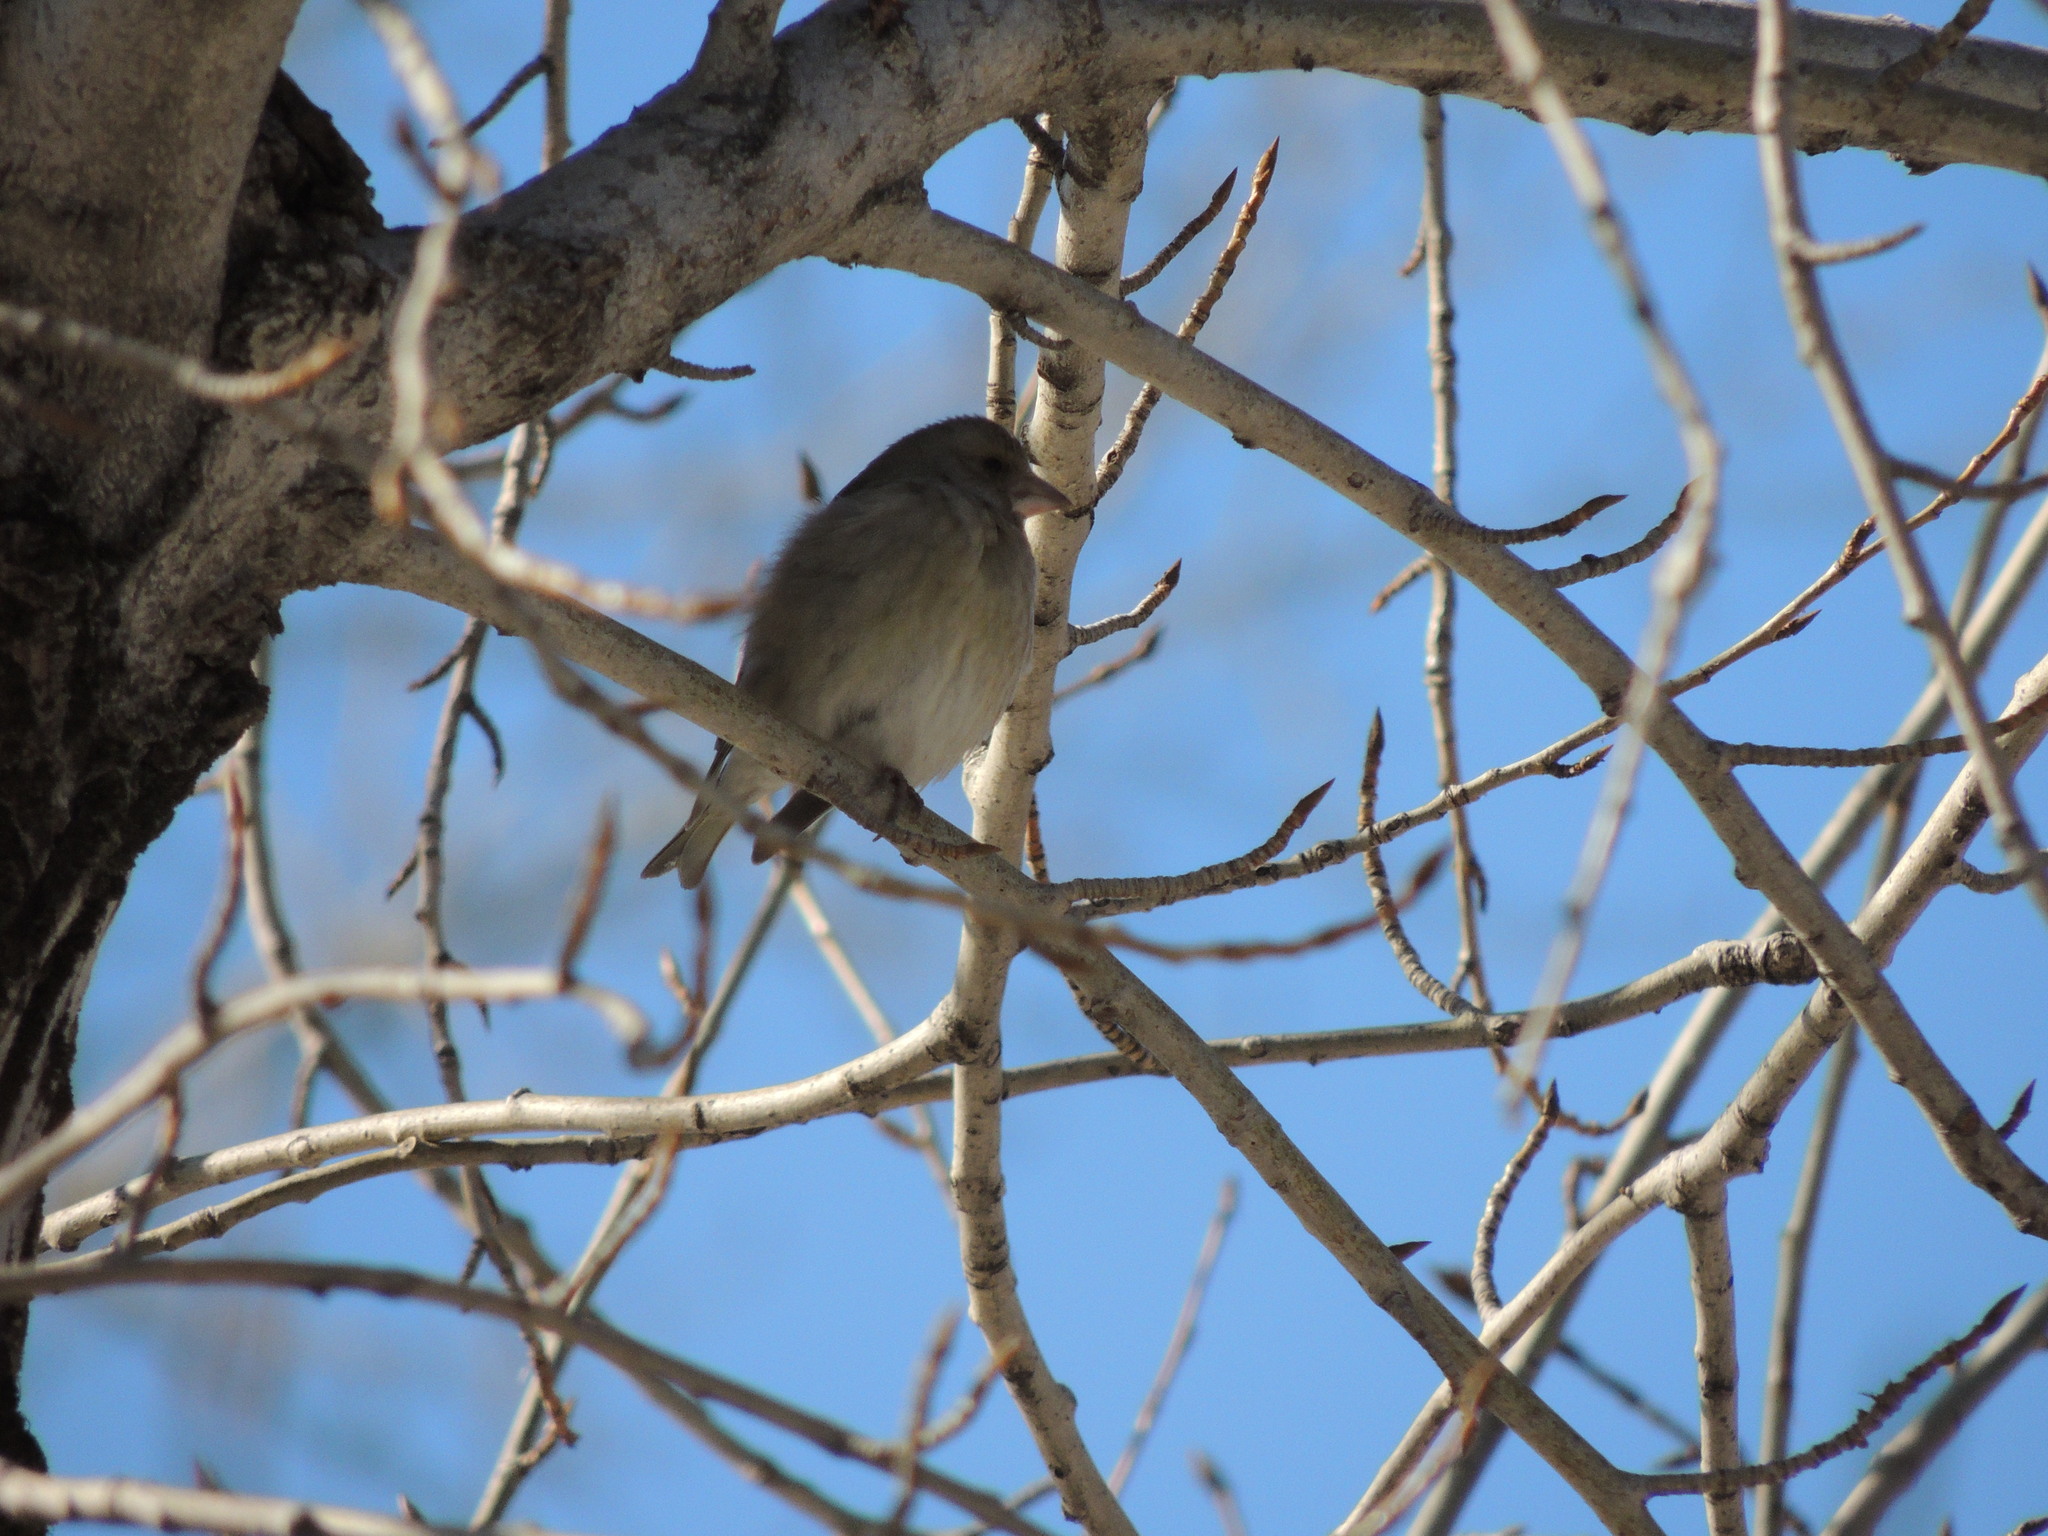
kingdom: Plantae
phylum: Tracheophyta
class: Liliopsida
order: Poales
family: Poaceae
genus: Chloris
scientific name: Chloris chloris
